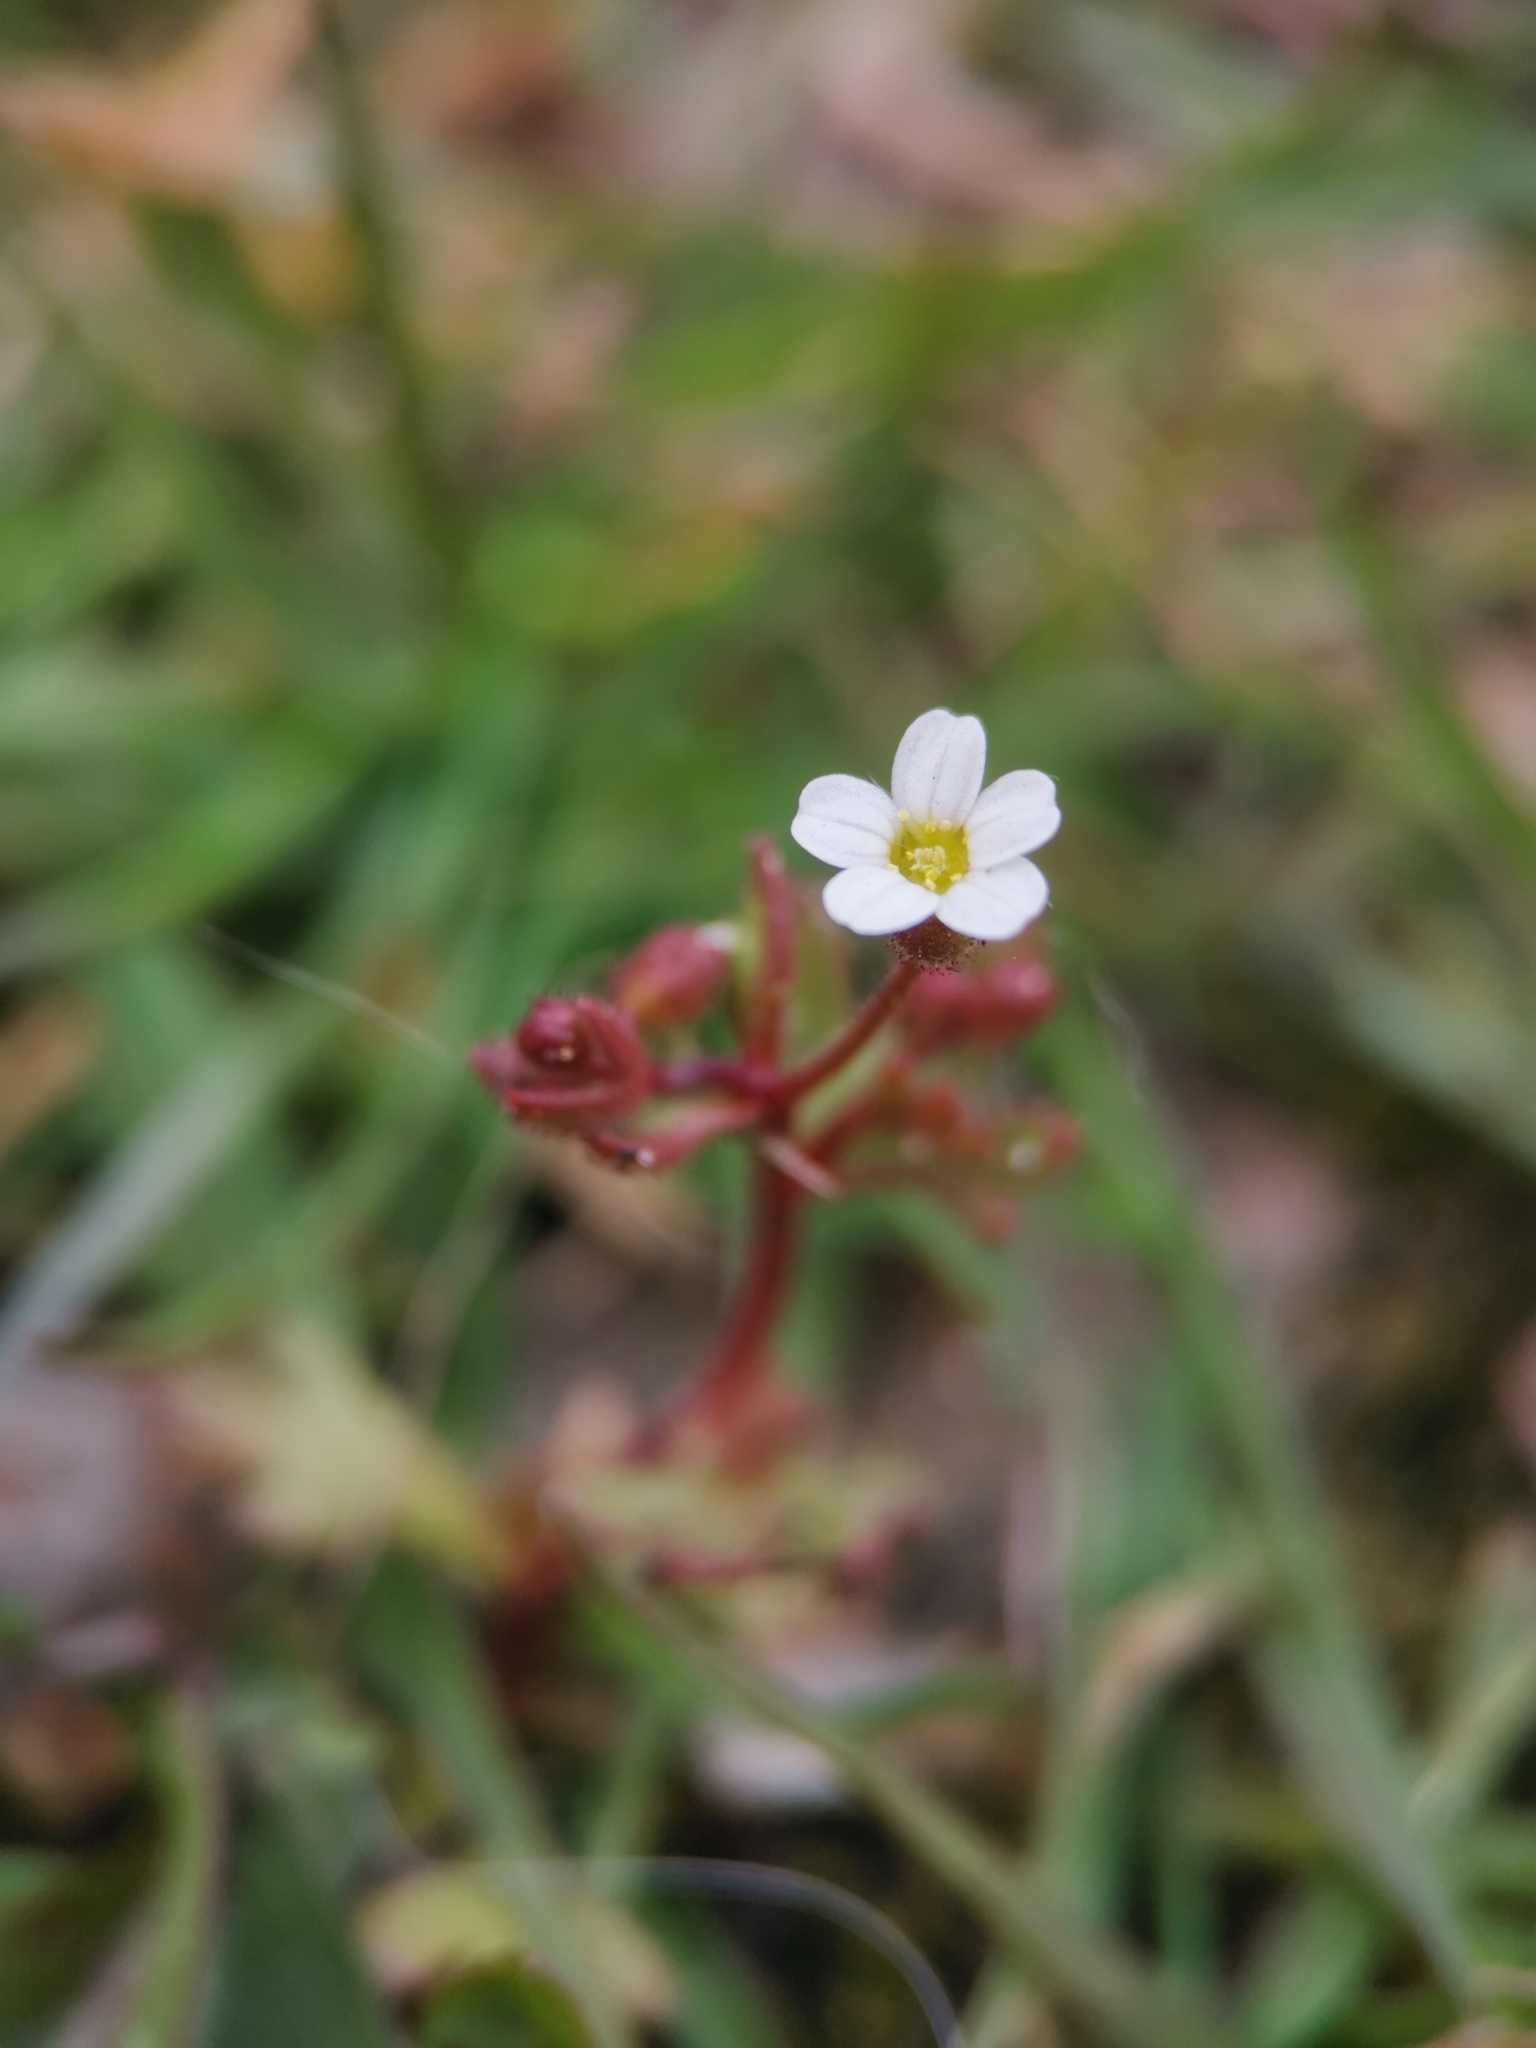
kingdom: Plantae
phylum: Tracheophyta
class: Magnoliopsida
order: Saxifragales
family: Saxifragaceae
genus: Saxifraga
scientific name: Saxifraga tridactylites
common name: Rue-leaved saxifrage
